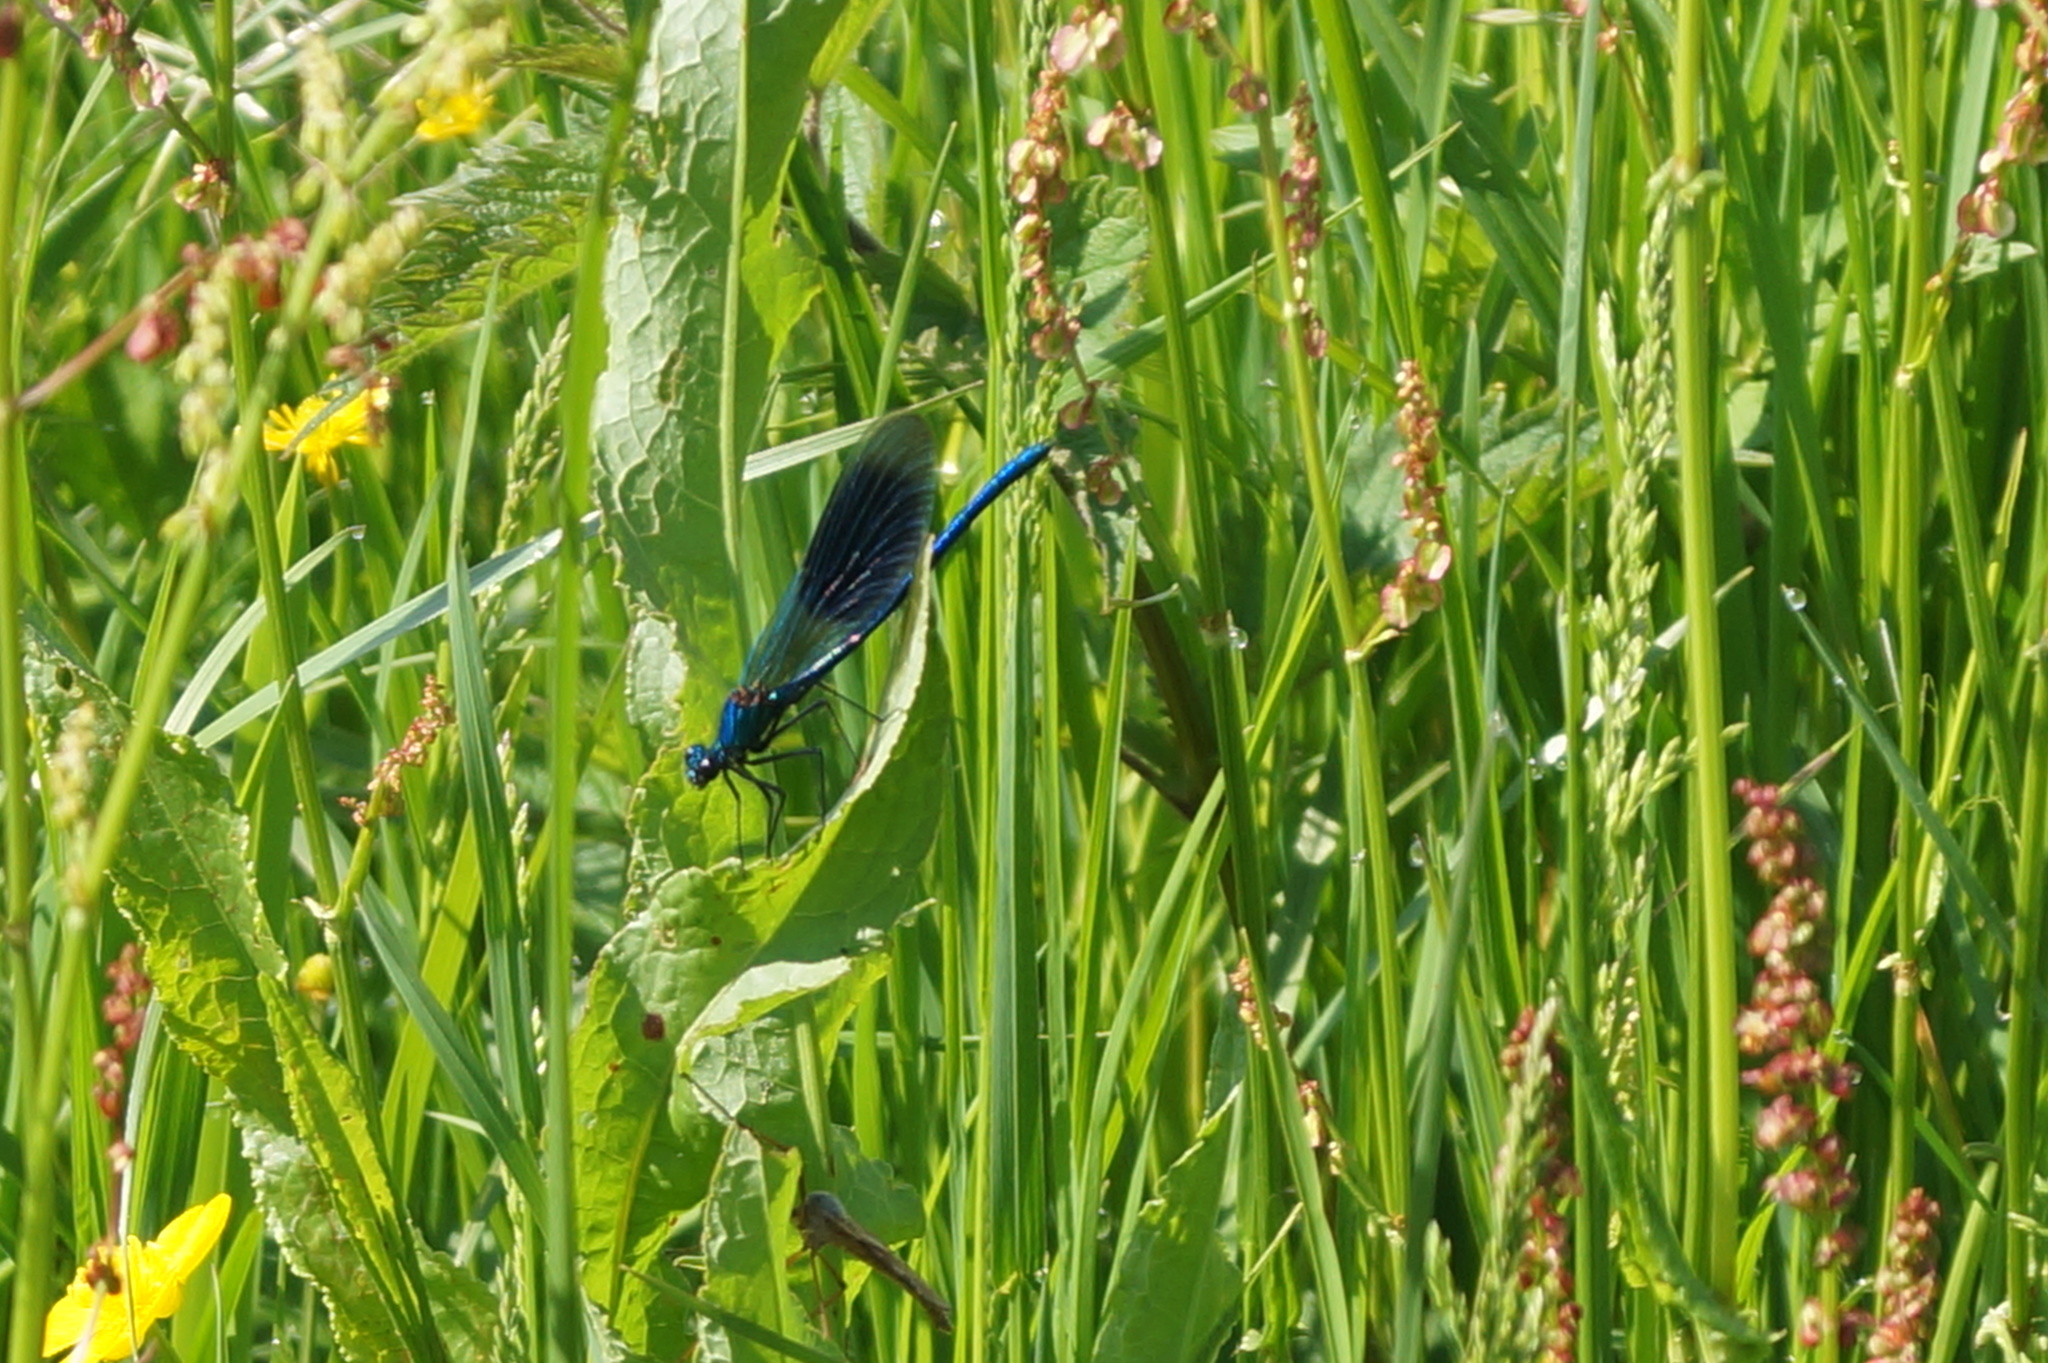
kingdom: Animalia
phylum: Arthropoda
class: Insecta
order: Odonata
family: Calopterygidae
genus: Calopteryx
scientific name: Calopteryx splendens
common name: Banded demoiselle
